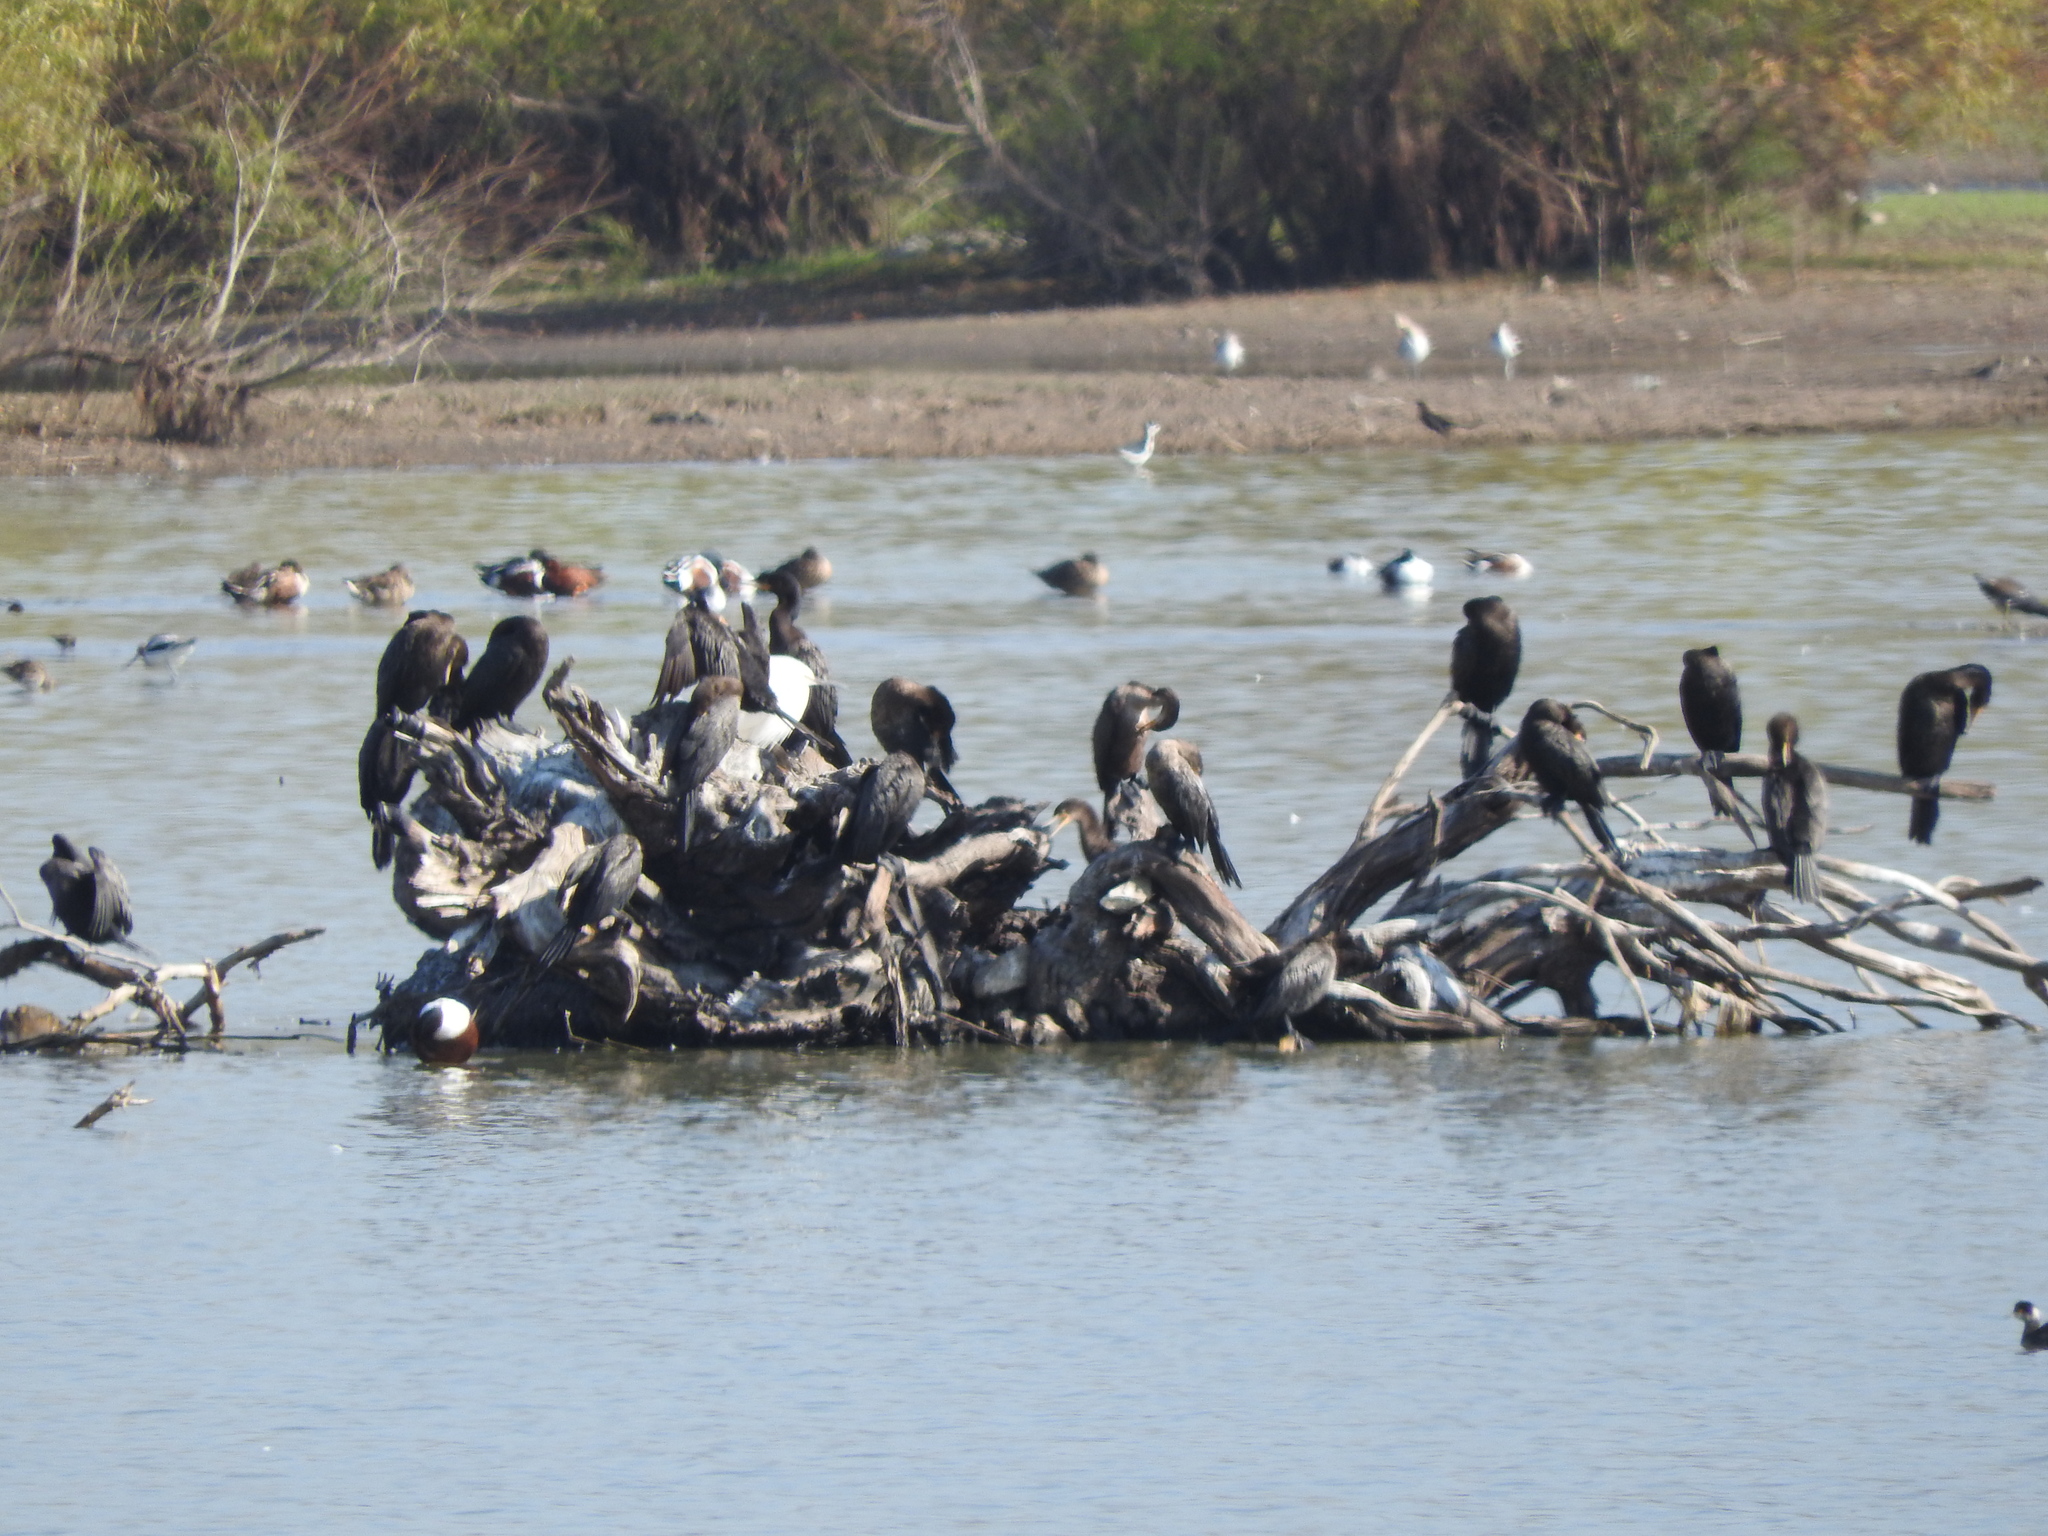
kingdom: Animalia
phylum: Chordata
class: Aves
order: Suliformes
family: Phalacrocoracidae
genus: Phalacrocorax
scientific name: Phalacrocorax brasilianus
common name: Neotropic cormorant
